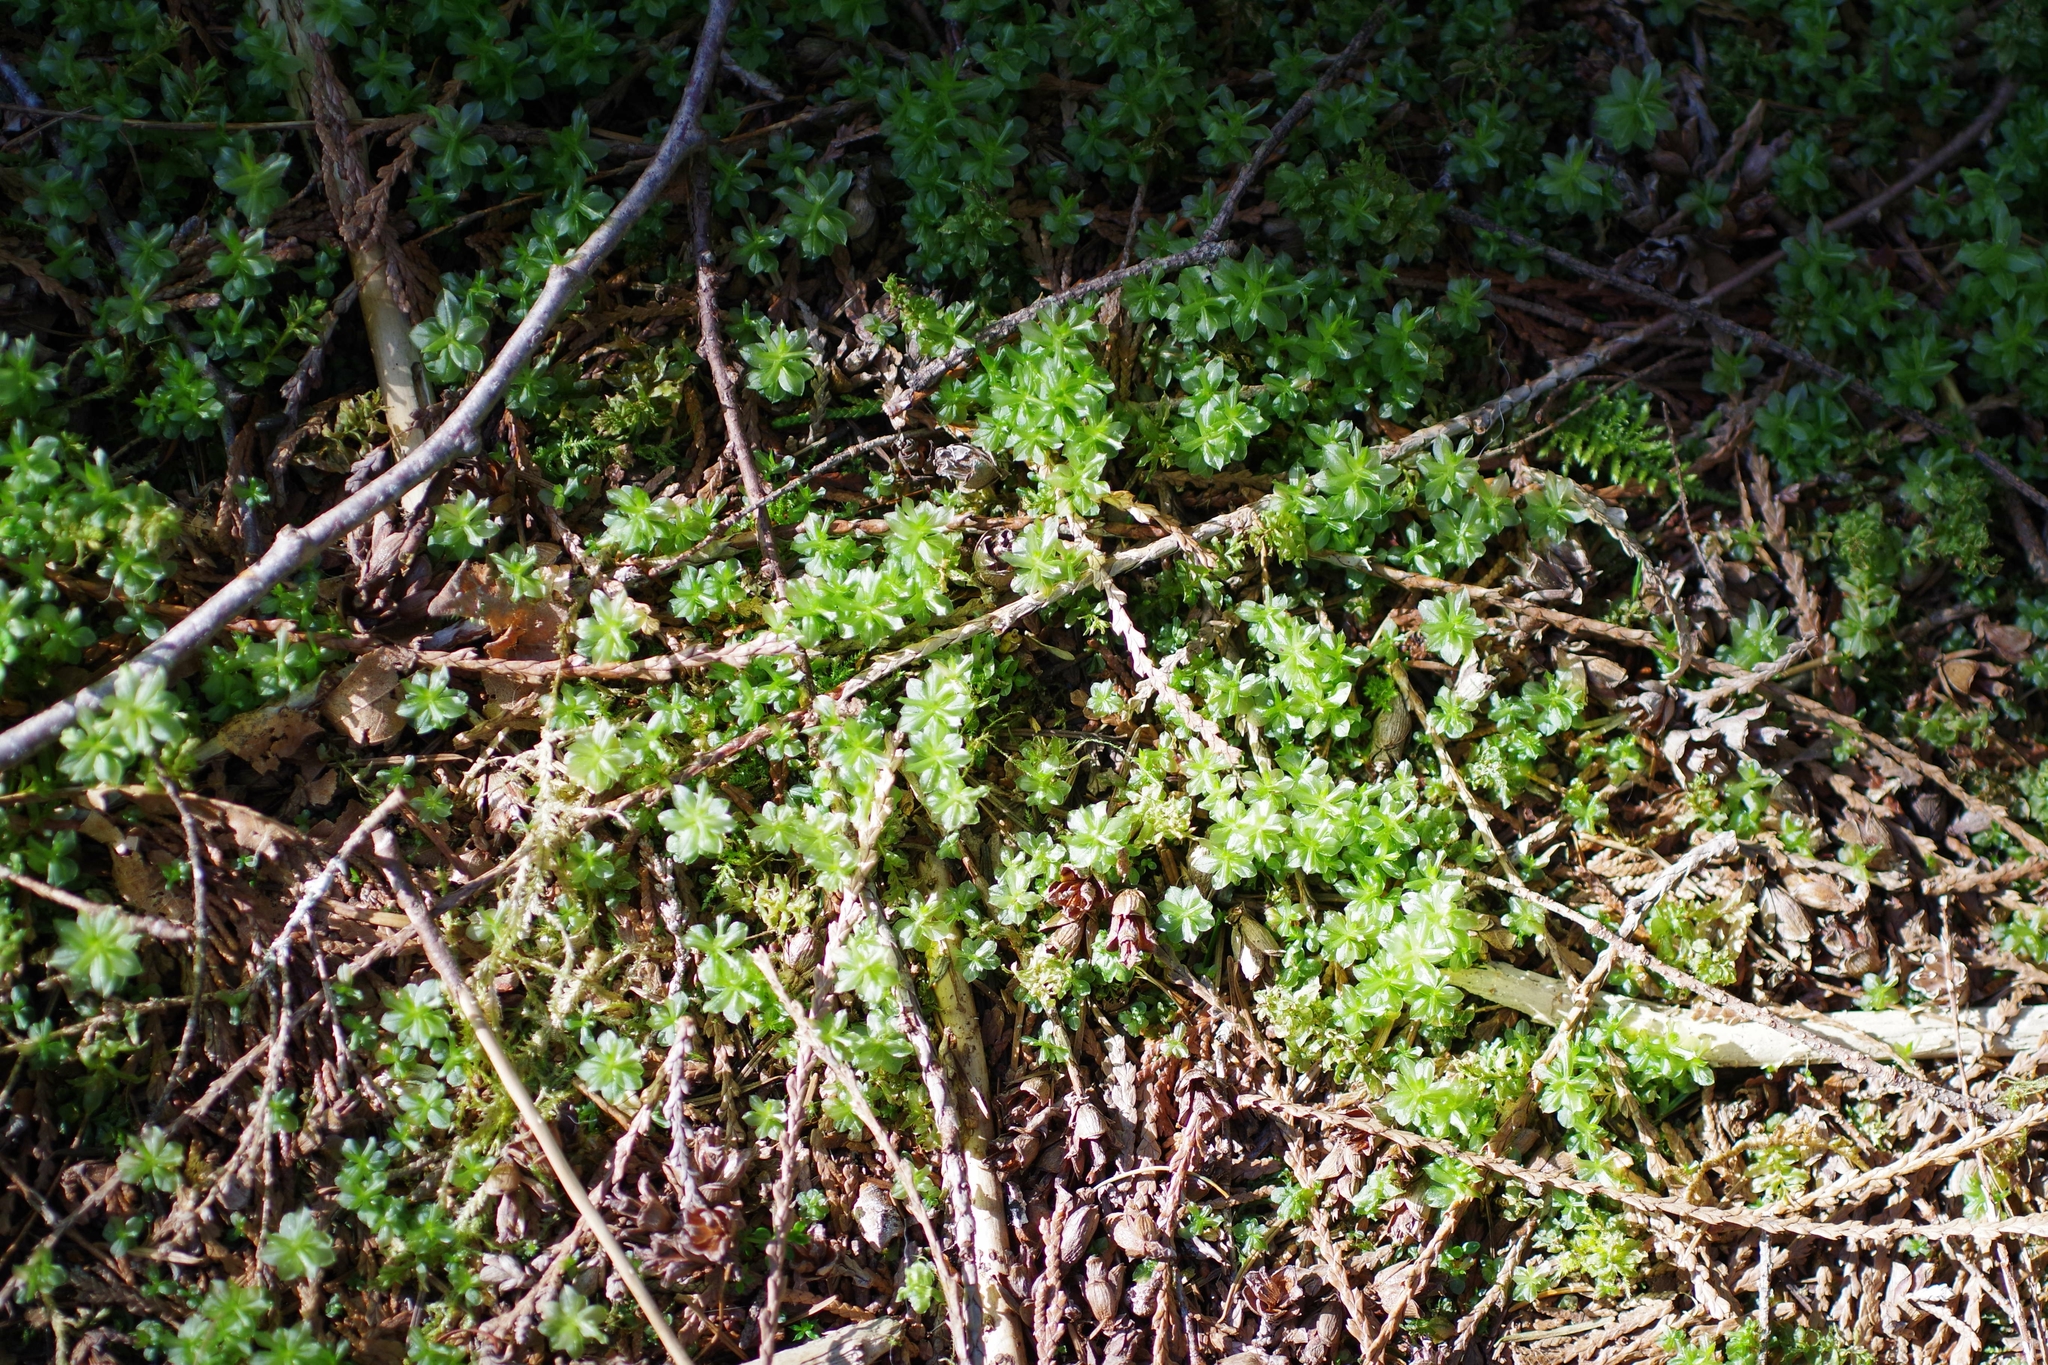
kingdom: Plantae
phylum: Bryophyta
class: Bryopsida
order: Bryales
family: Mniaceae
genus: Plagiomnium
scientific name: Plagiomnium insigne
